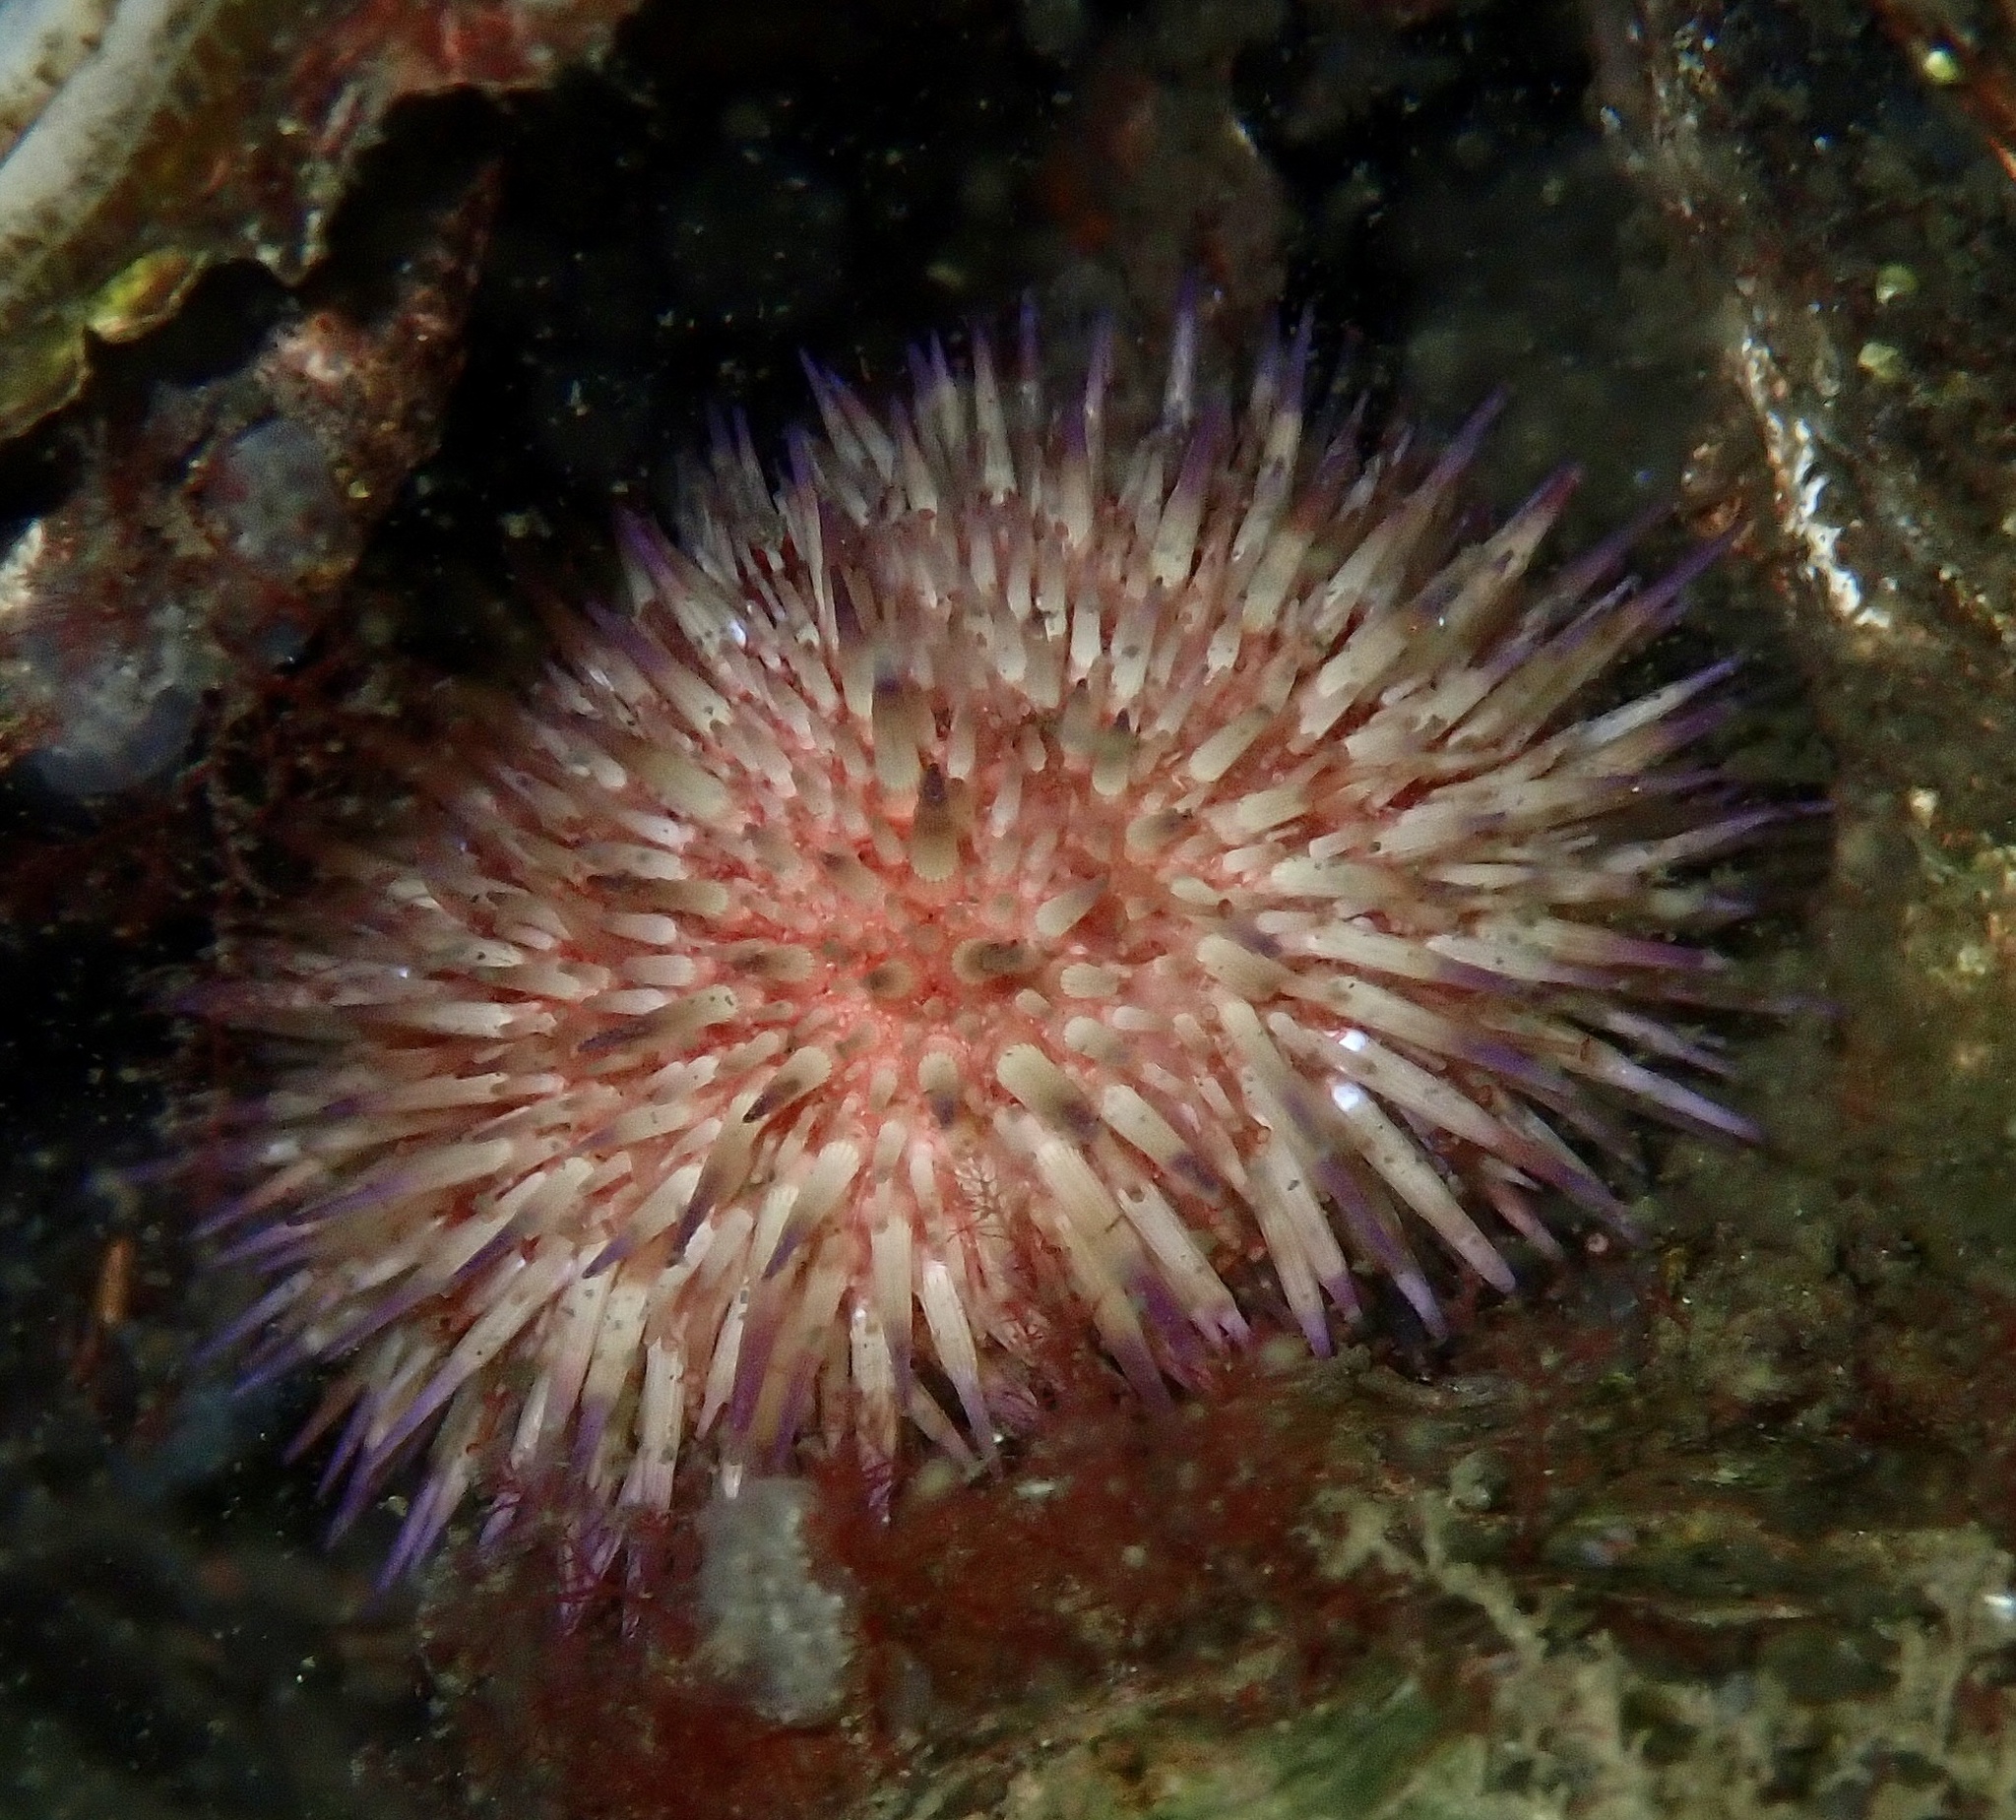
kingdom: Animalia
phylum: Echinodermata
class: Echinoidea
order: Camarodonta
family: Parechinidae
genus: Psammechinus
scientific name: Psammechinus miliaris
